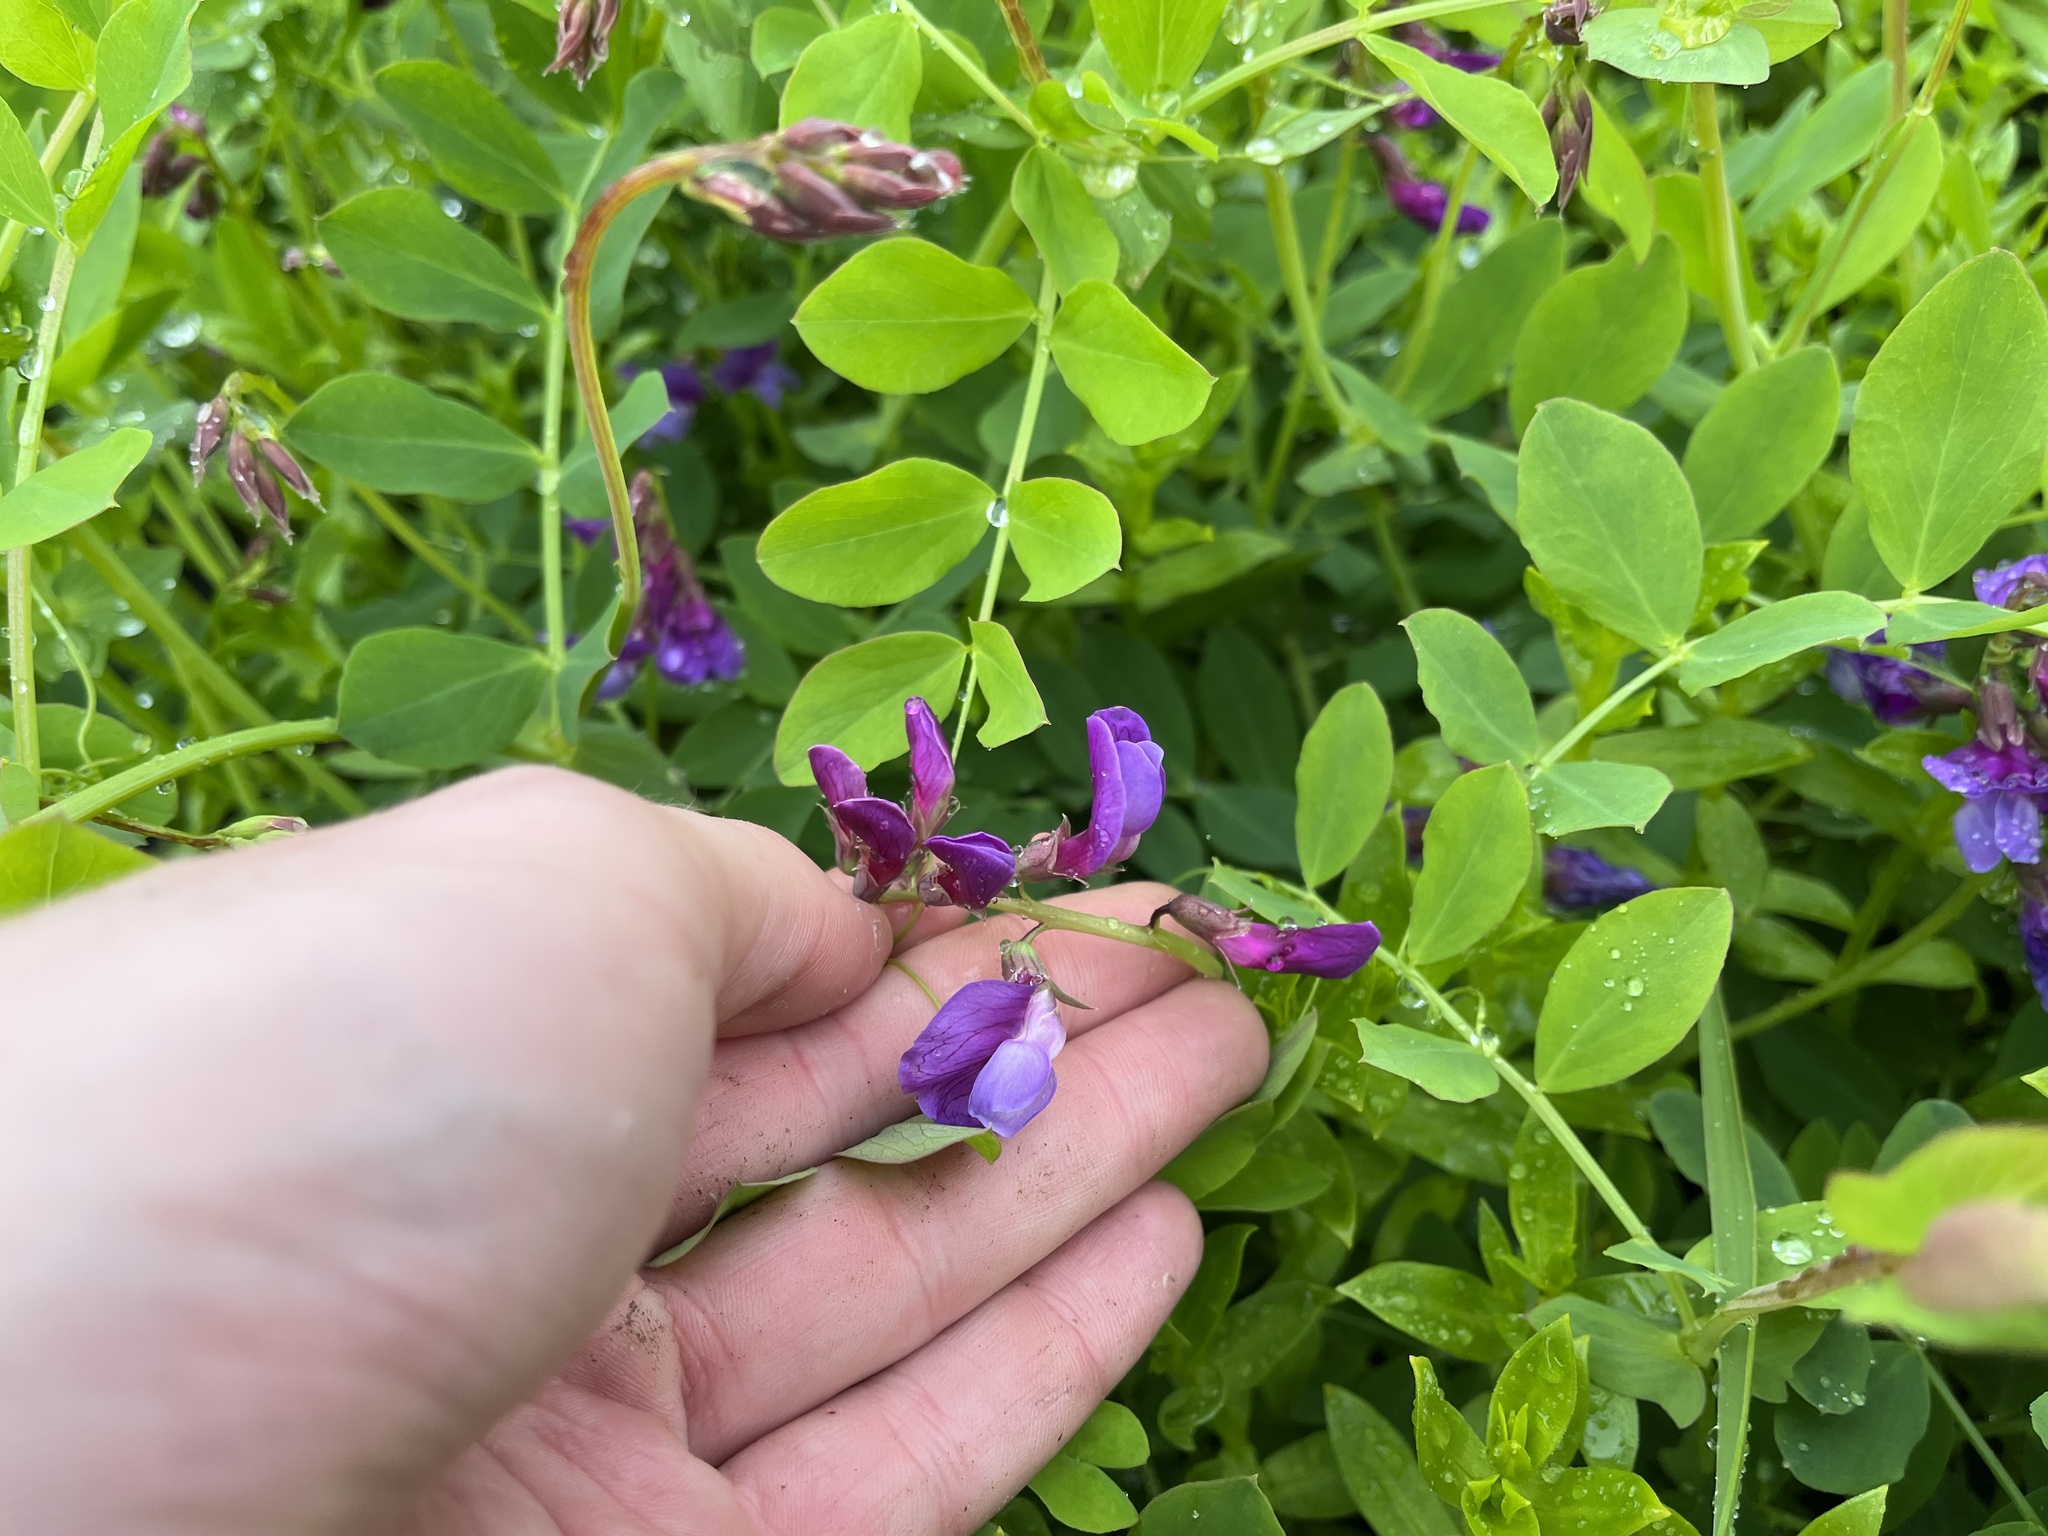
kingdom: Plantae
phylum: Tracheophyta
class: Magnoliopsida
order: Fabales
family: Fabaceae
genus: Lathyrus
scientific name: Lathyrus japonicus
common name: Sea pea
